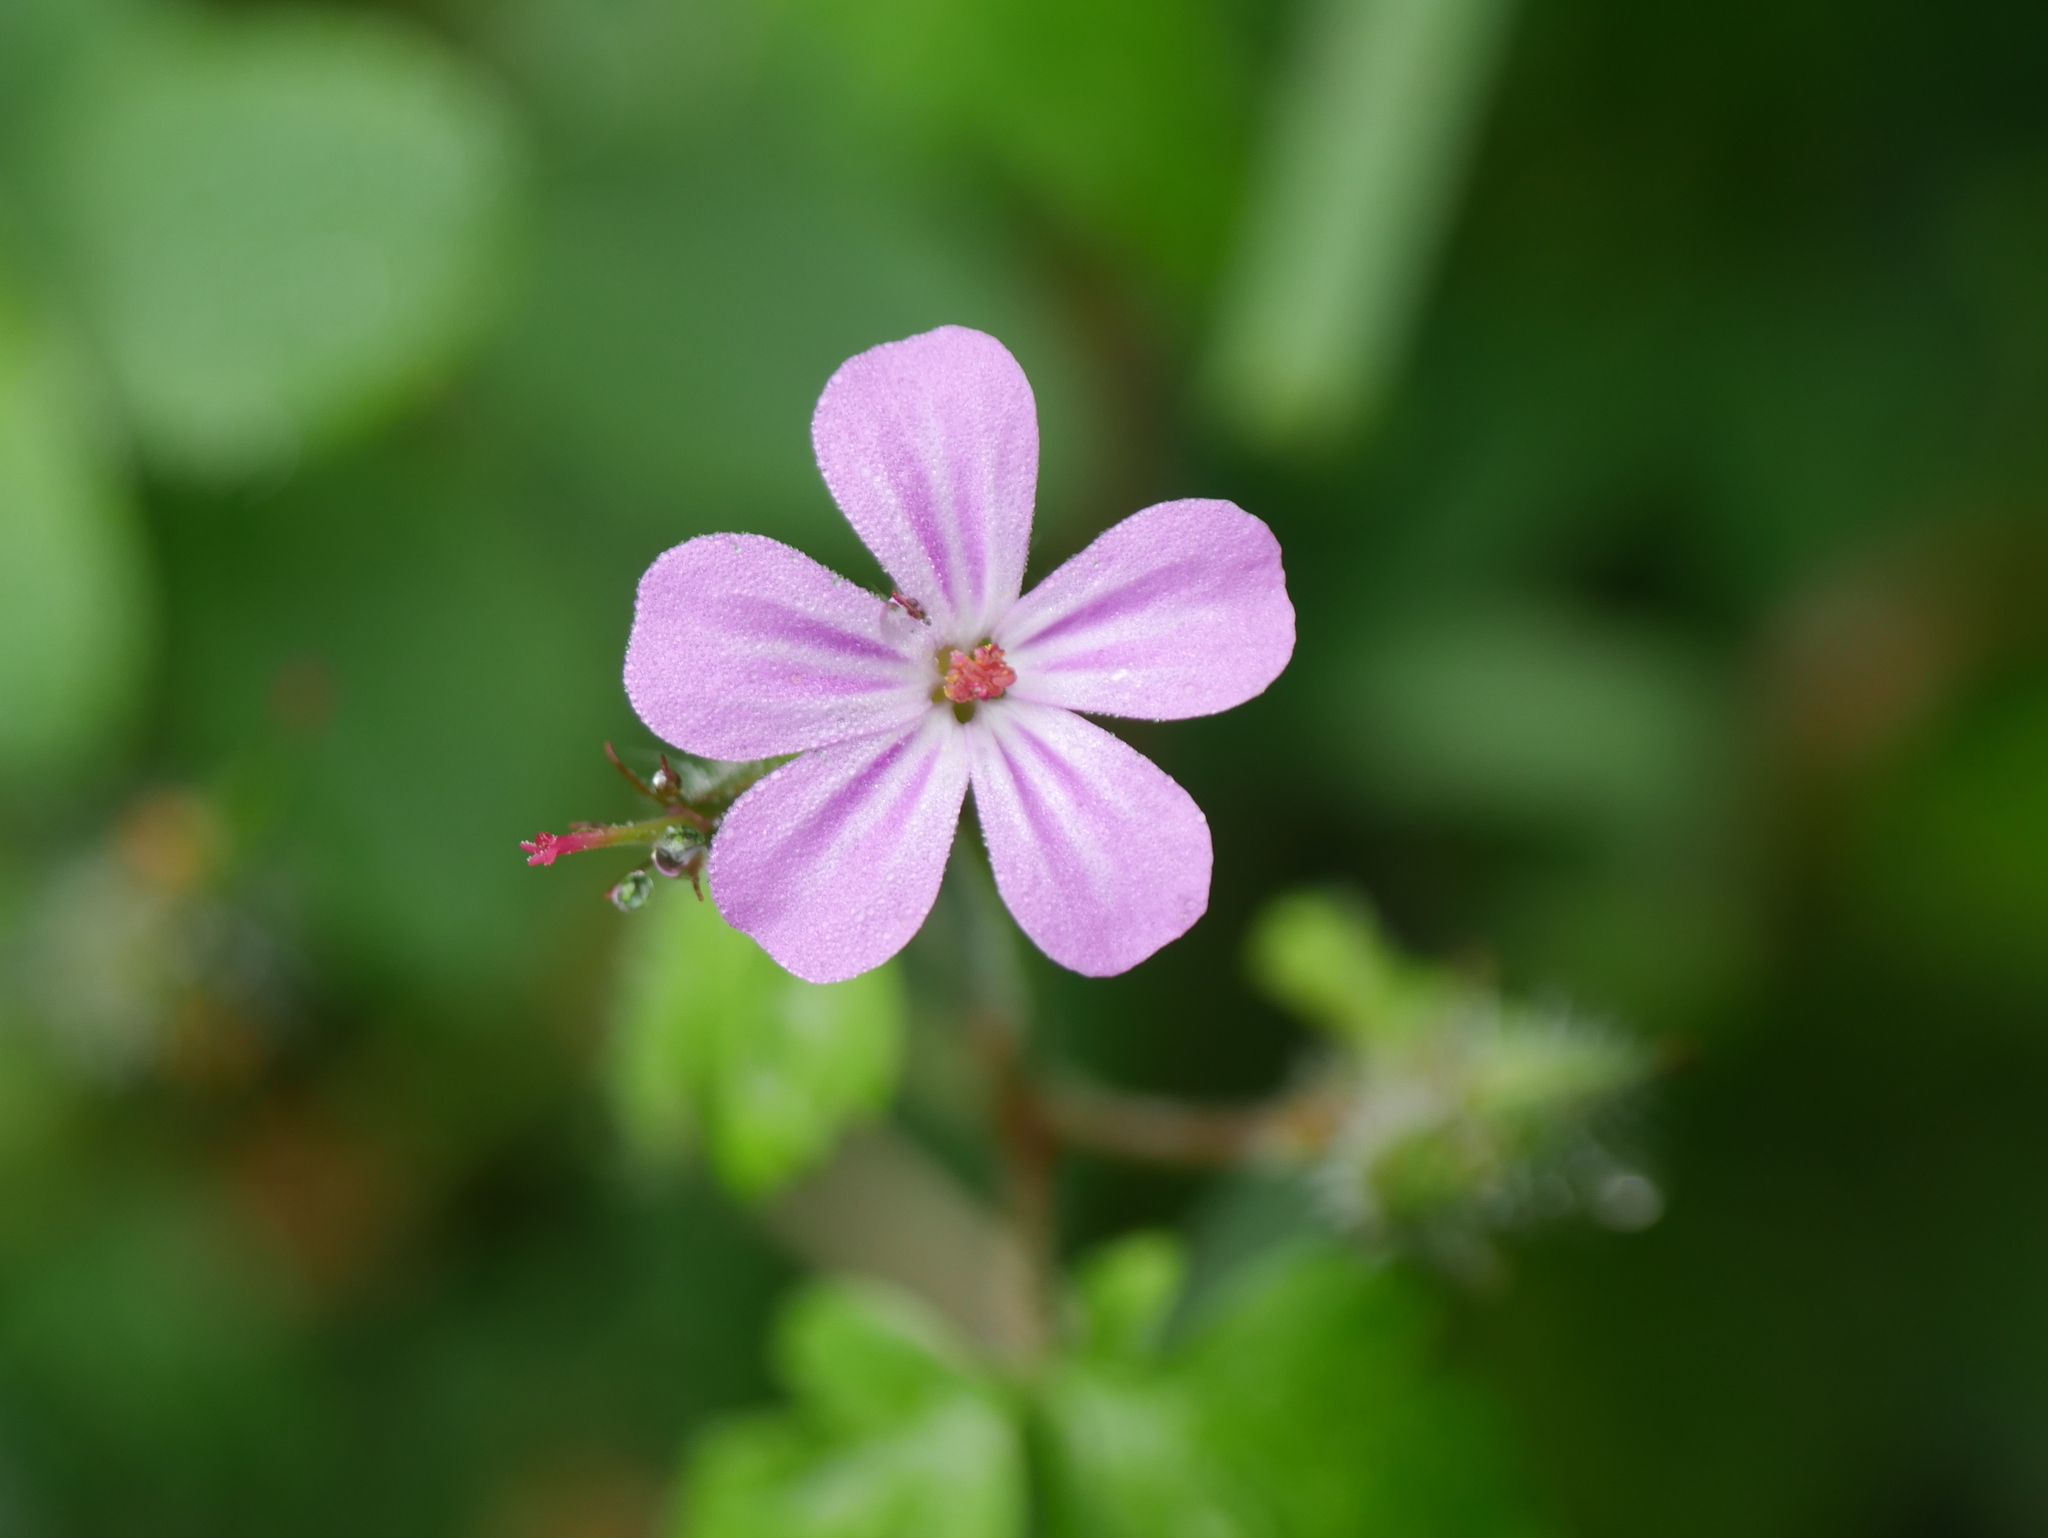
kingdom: Plantae
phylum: Tracheophyta
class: Magnoliopsida
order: Geraniales
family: Geraniaceae
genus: Geranium
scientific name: Geranium robertianum
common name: Herb-robert
